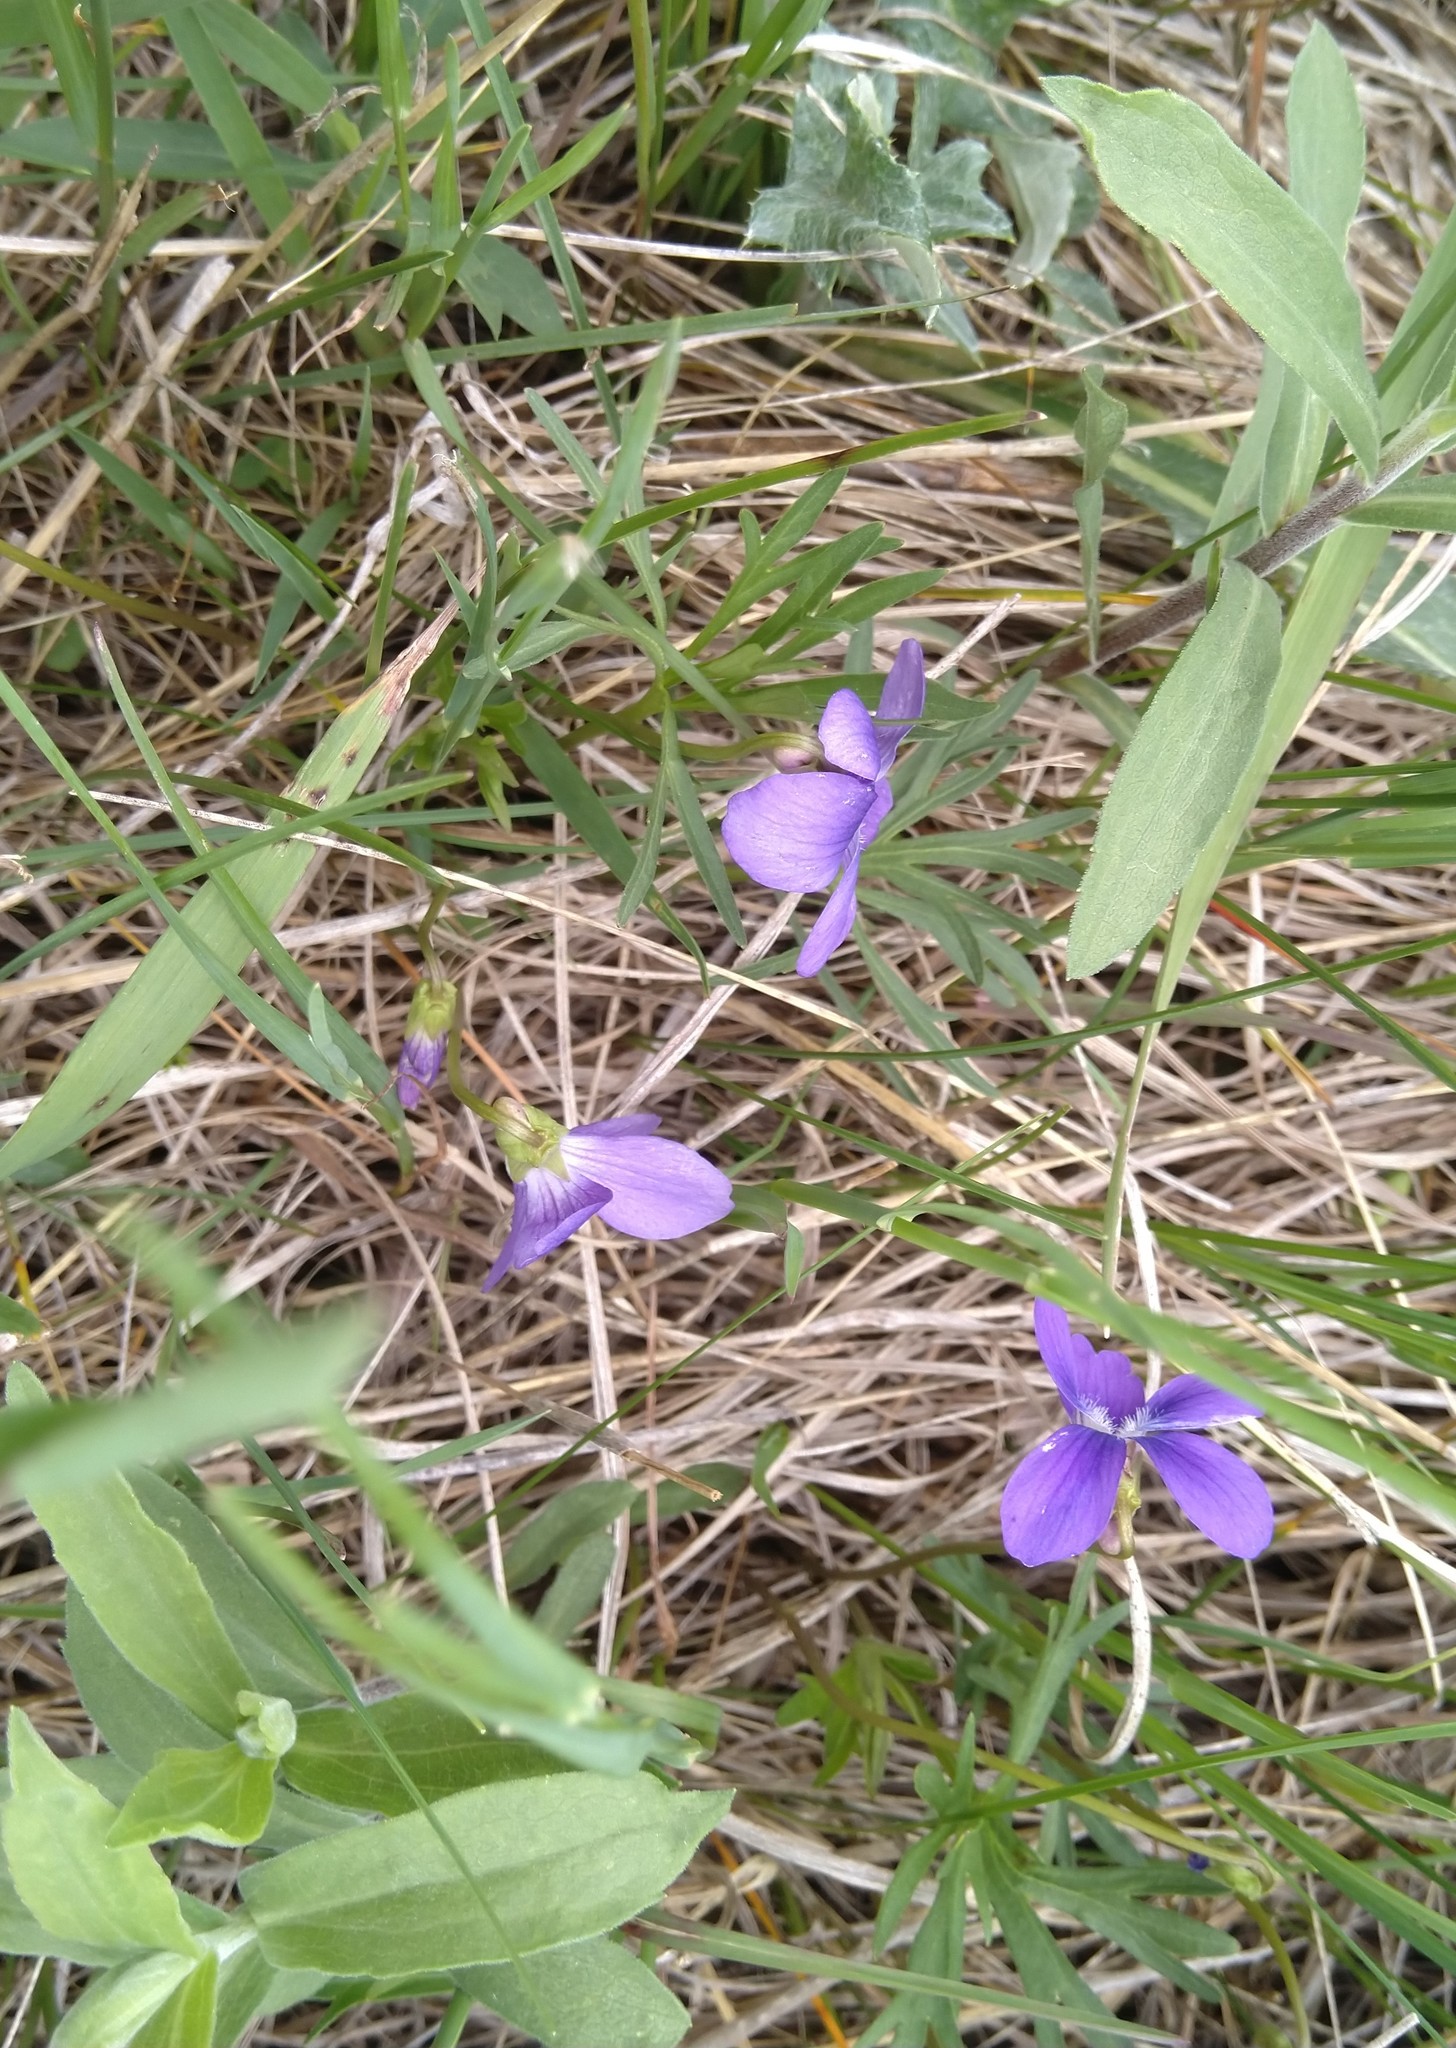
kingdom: Plantae
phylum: Tracheophyta
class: Magnoliopsida
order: Malpighiales
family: Violaceae
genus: Viola
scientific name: Viola pedatifida
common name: Prairie violet
